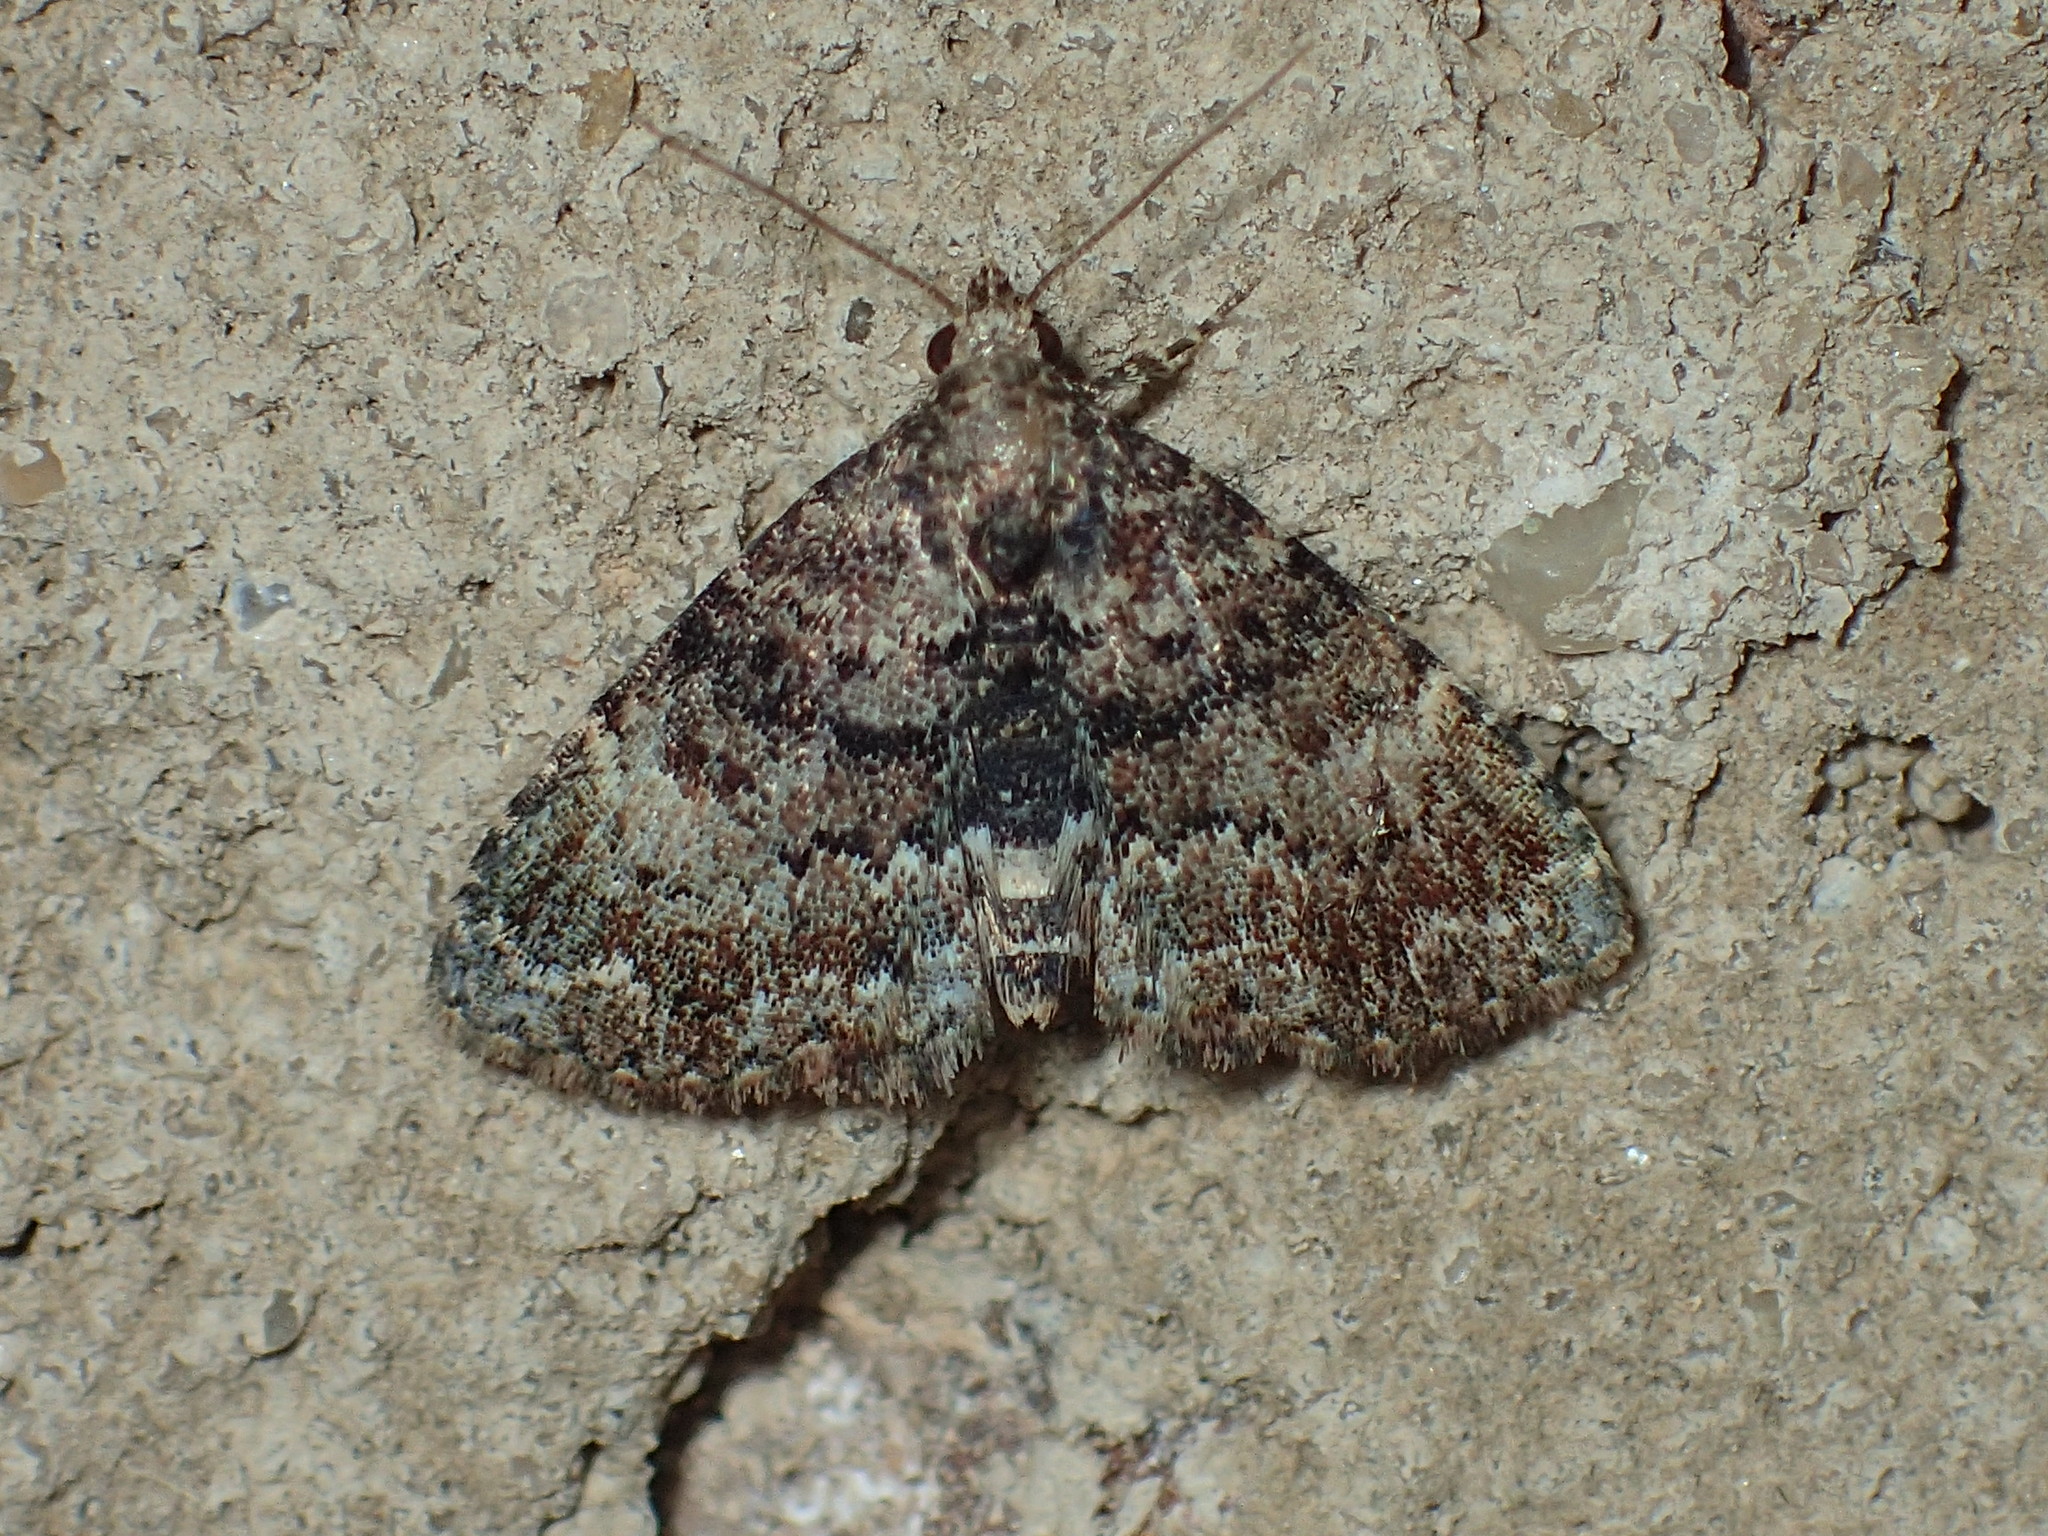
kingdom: Animalia
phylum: Arthropoda
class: Insecta
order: Lepidoptera
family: Erebidae
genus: Metalectra
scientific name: Metalectra richardsi
